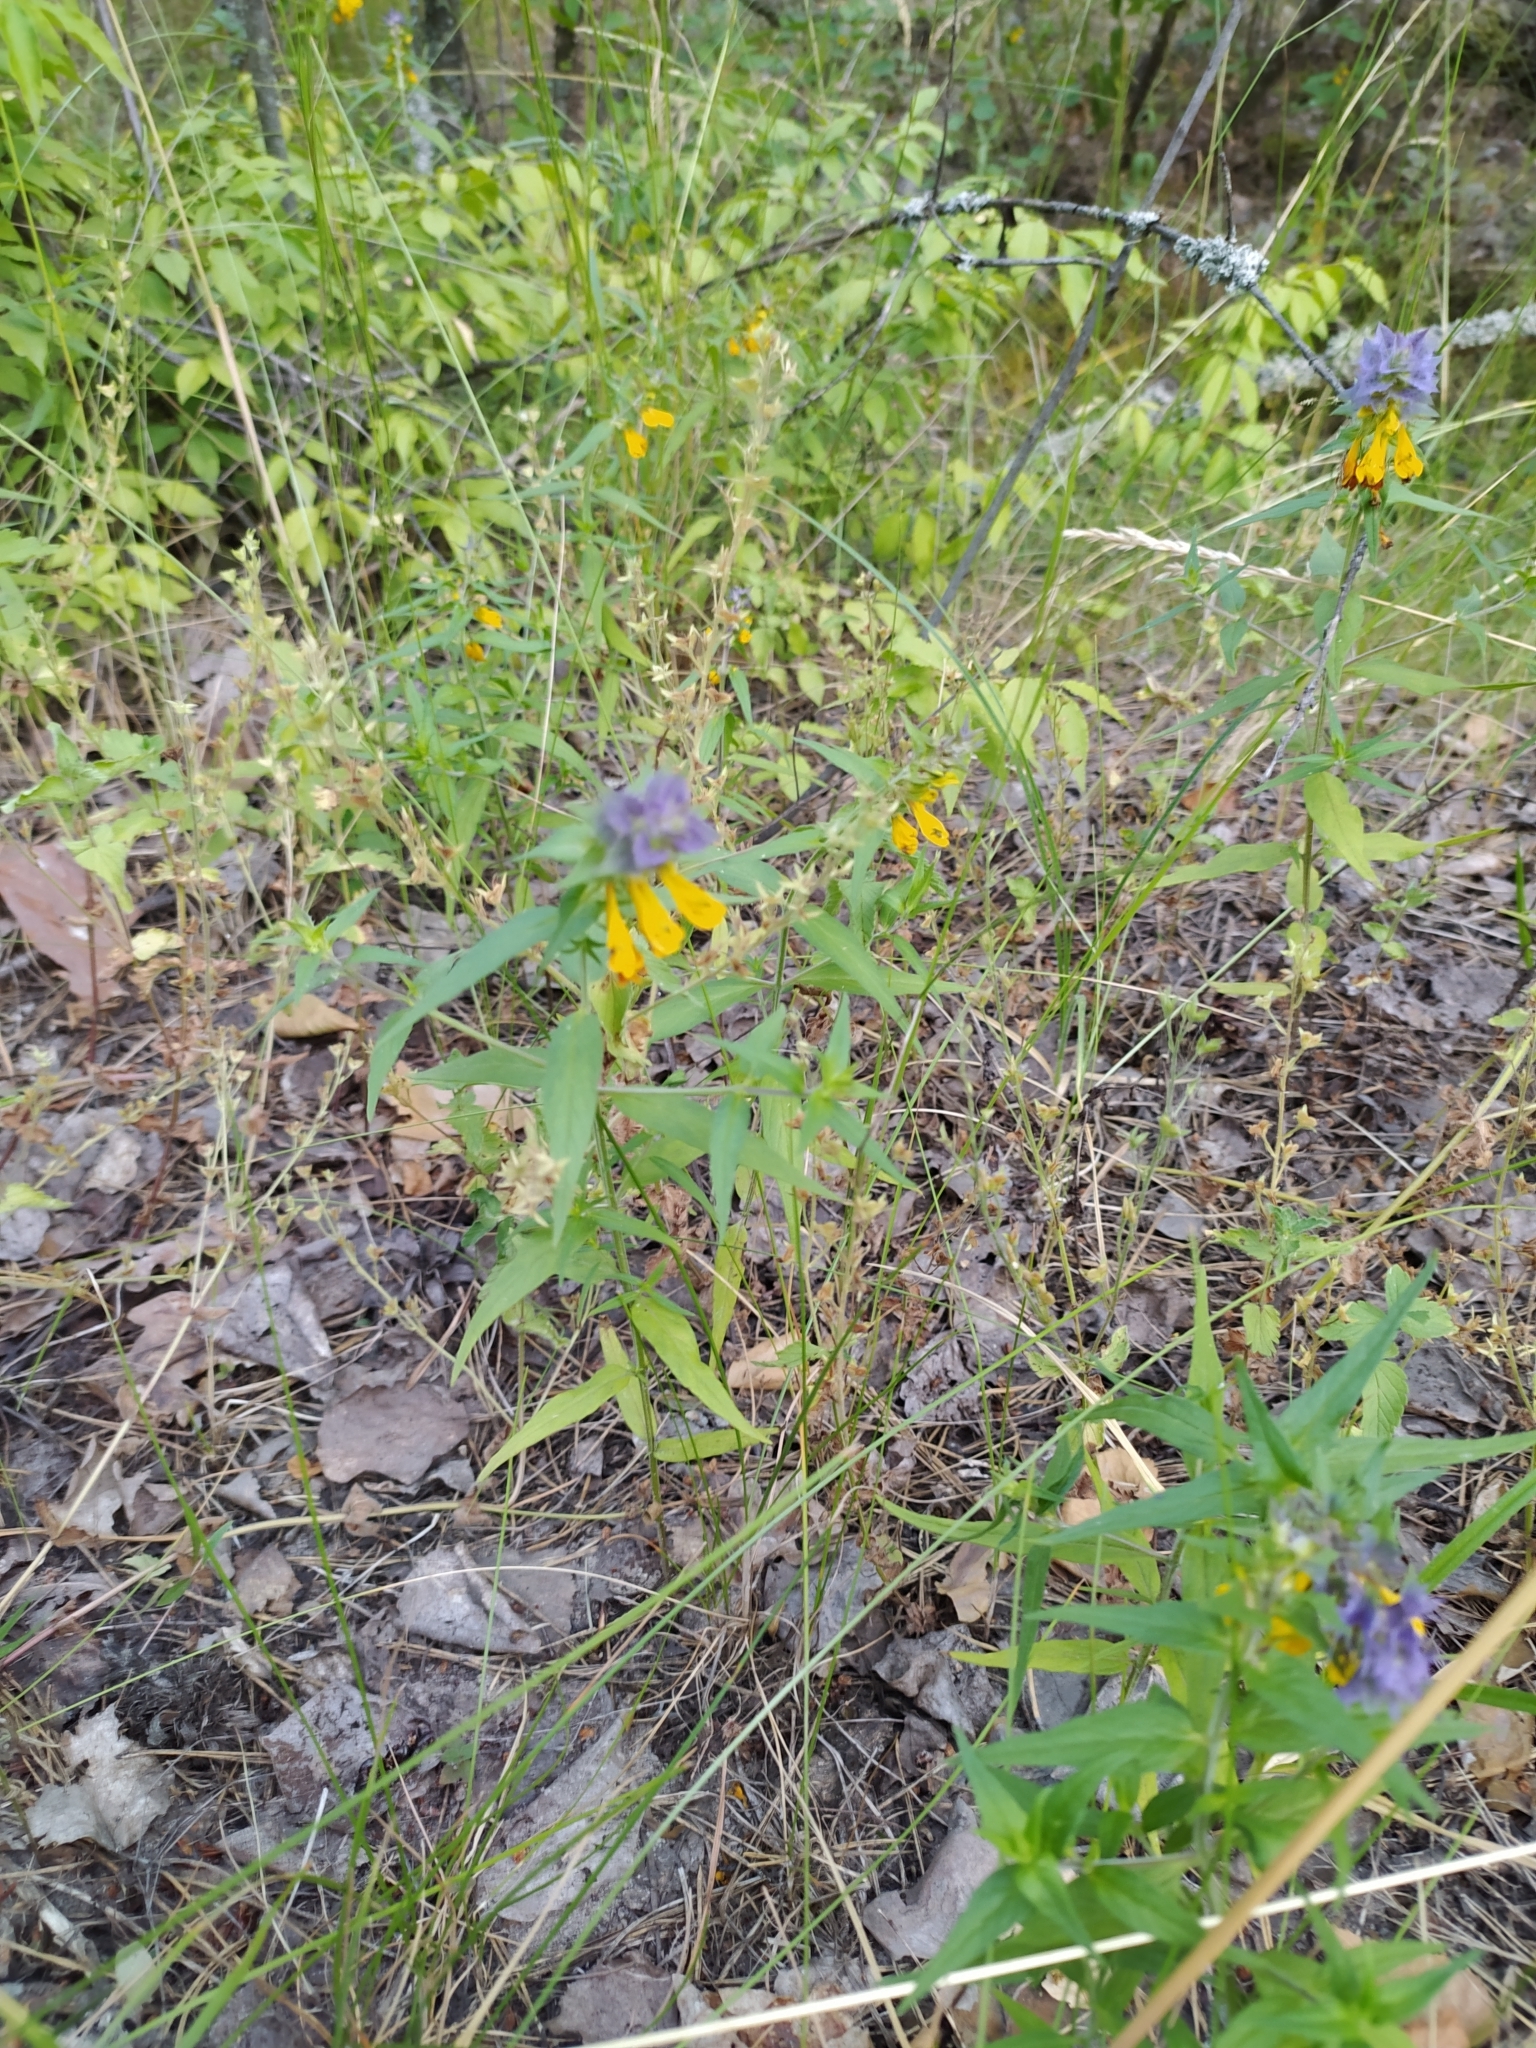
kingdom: Plantae
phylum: Tracheophyta
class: Magnoliopsida
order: Lamiales
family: Orobanchaceae
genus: Melampyrum
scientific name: Melampyrum nemorosum
